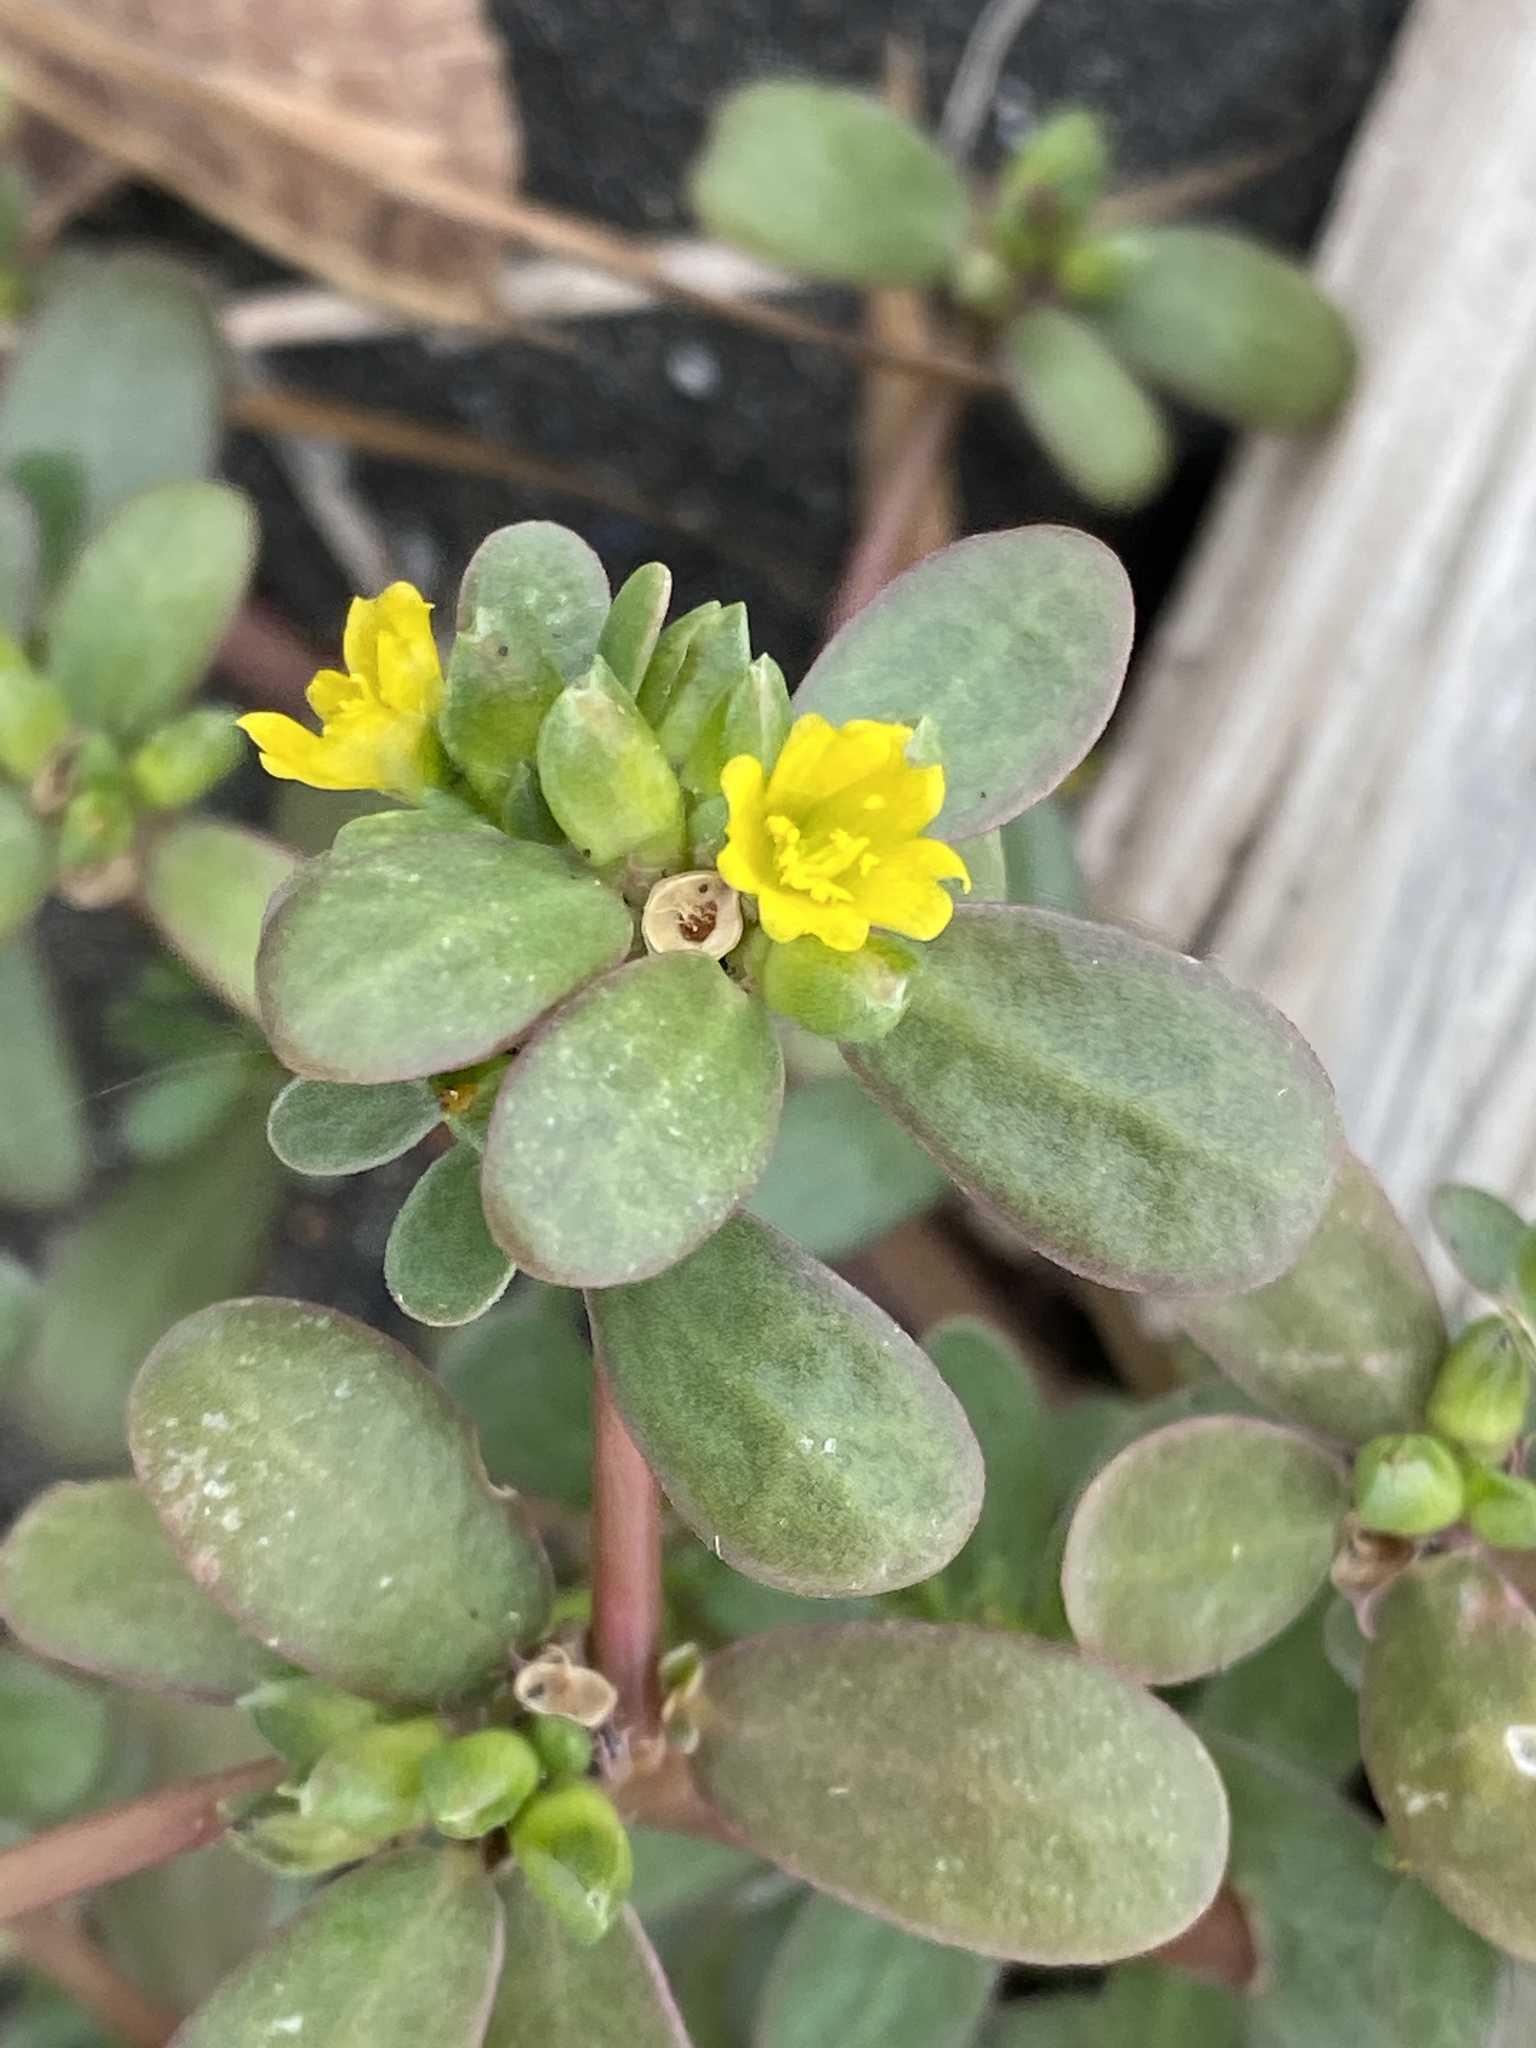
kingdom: Plantae
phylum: Tracheophyta
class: Magnoliopsida
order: Caryophyllales
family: Portulacaceae
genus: Portulaca
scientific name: Portulaca oleracea
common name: Common purslane
